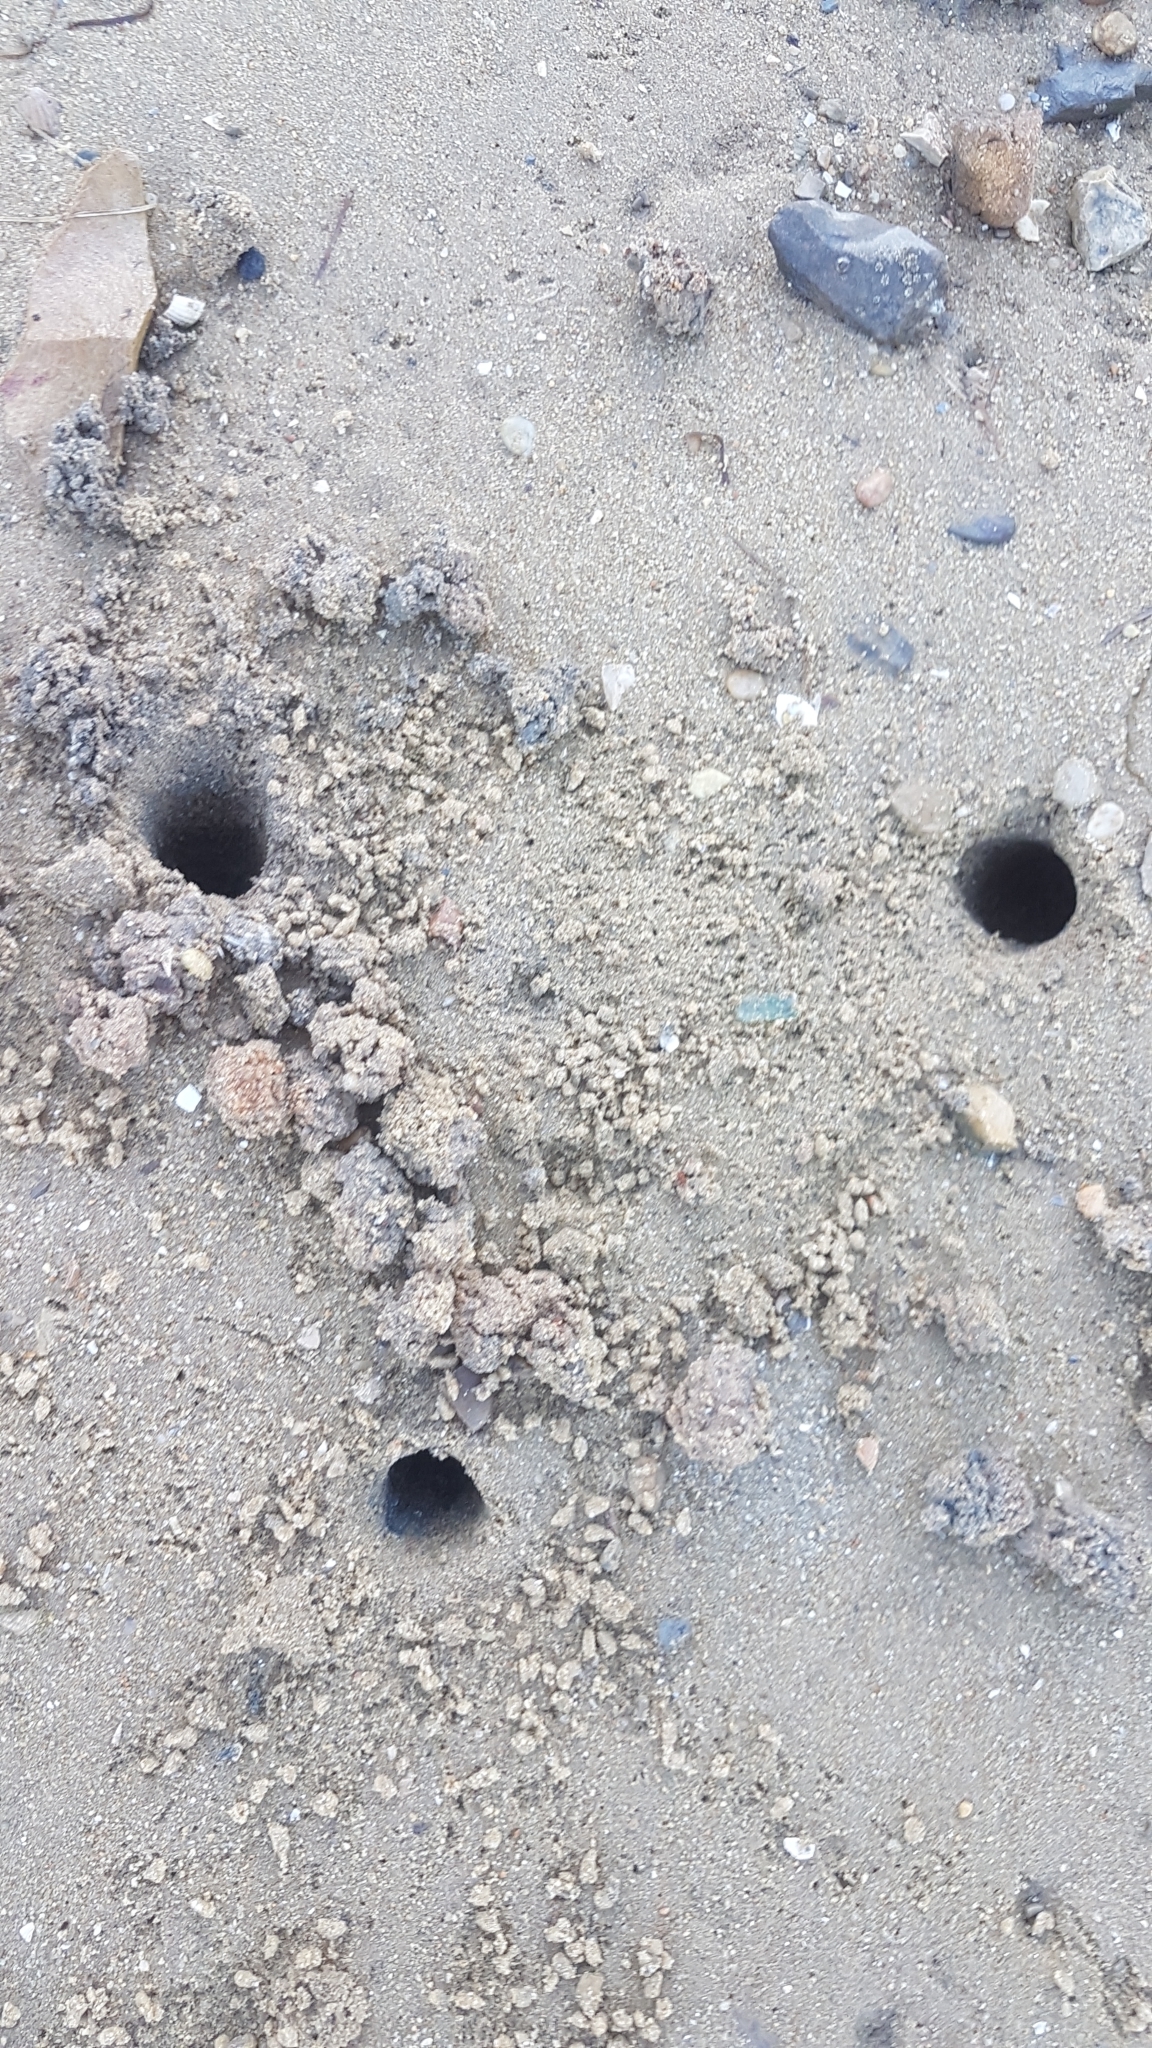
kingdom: Animalia
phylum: Arthropoda
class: Malacostraca
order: Decapoda
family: Ocypodidae
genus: Afruca
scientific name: Afruca tangeri
